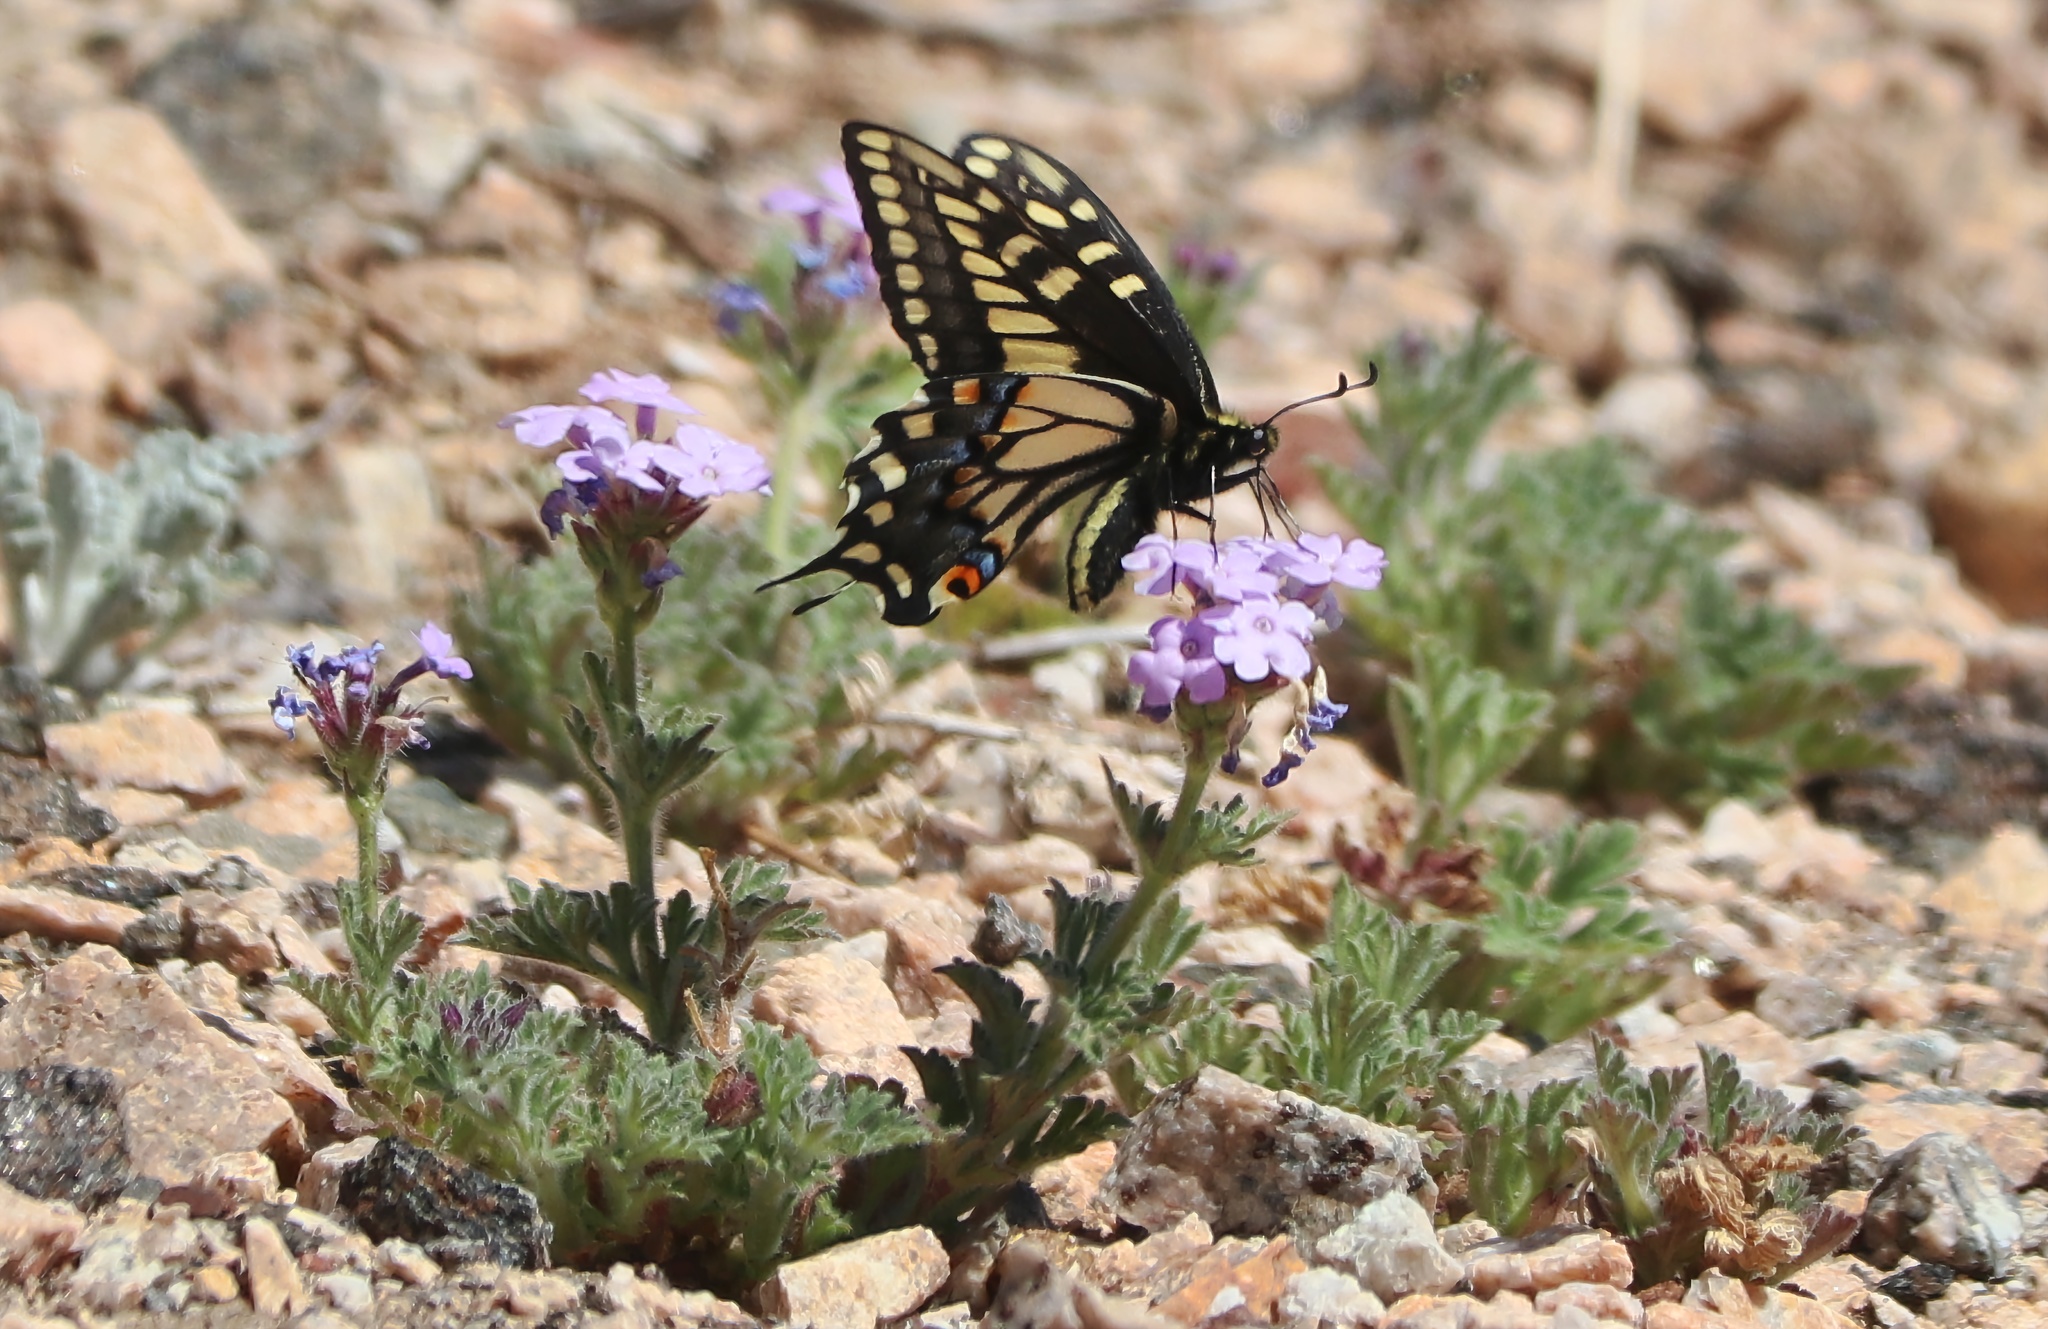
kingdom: Animalia
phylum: Arthropoda
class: Insecta
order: Lepidoptera
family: Papilionidae
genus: Papilio
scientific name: Papilio polyxenes
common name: Black swallowtail
